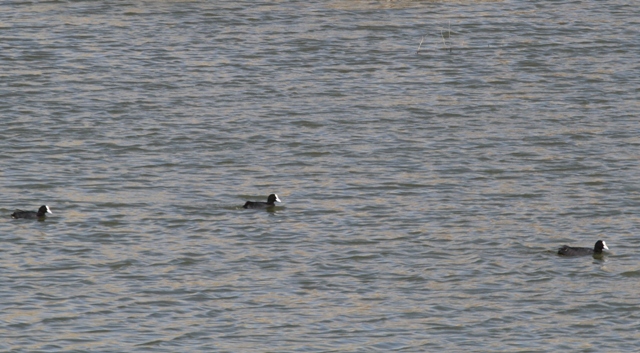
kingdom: Animalia
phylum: Chordata
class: Aves
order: Gruiformes
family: Rallidae
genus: Fulica
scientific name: Fulica atra
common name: Eurasian coot
